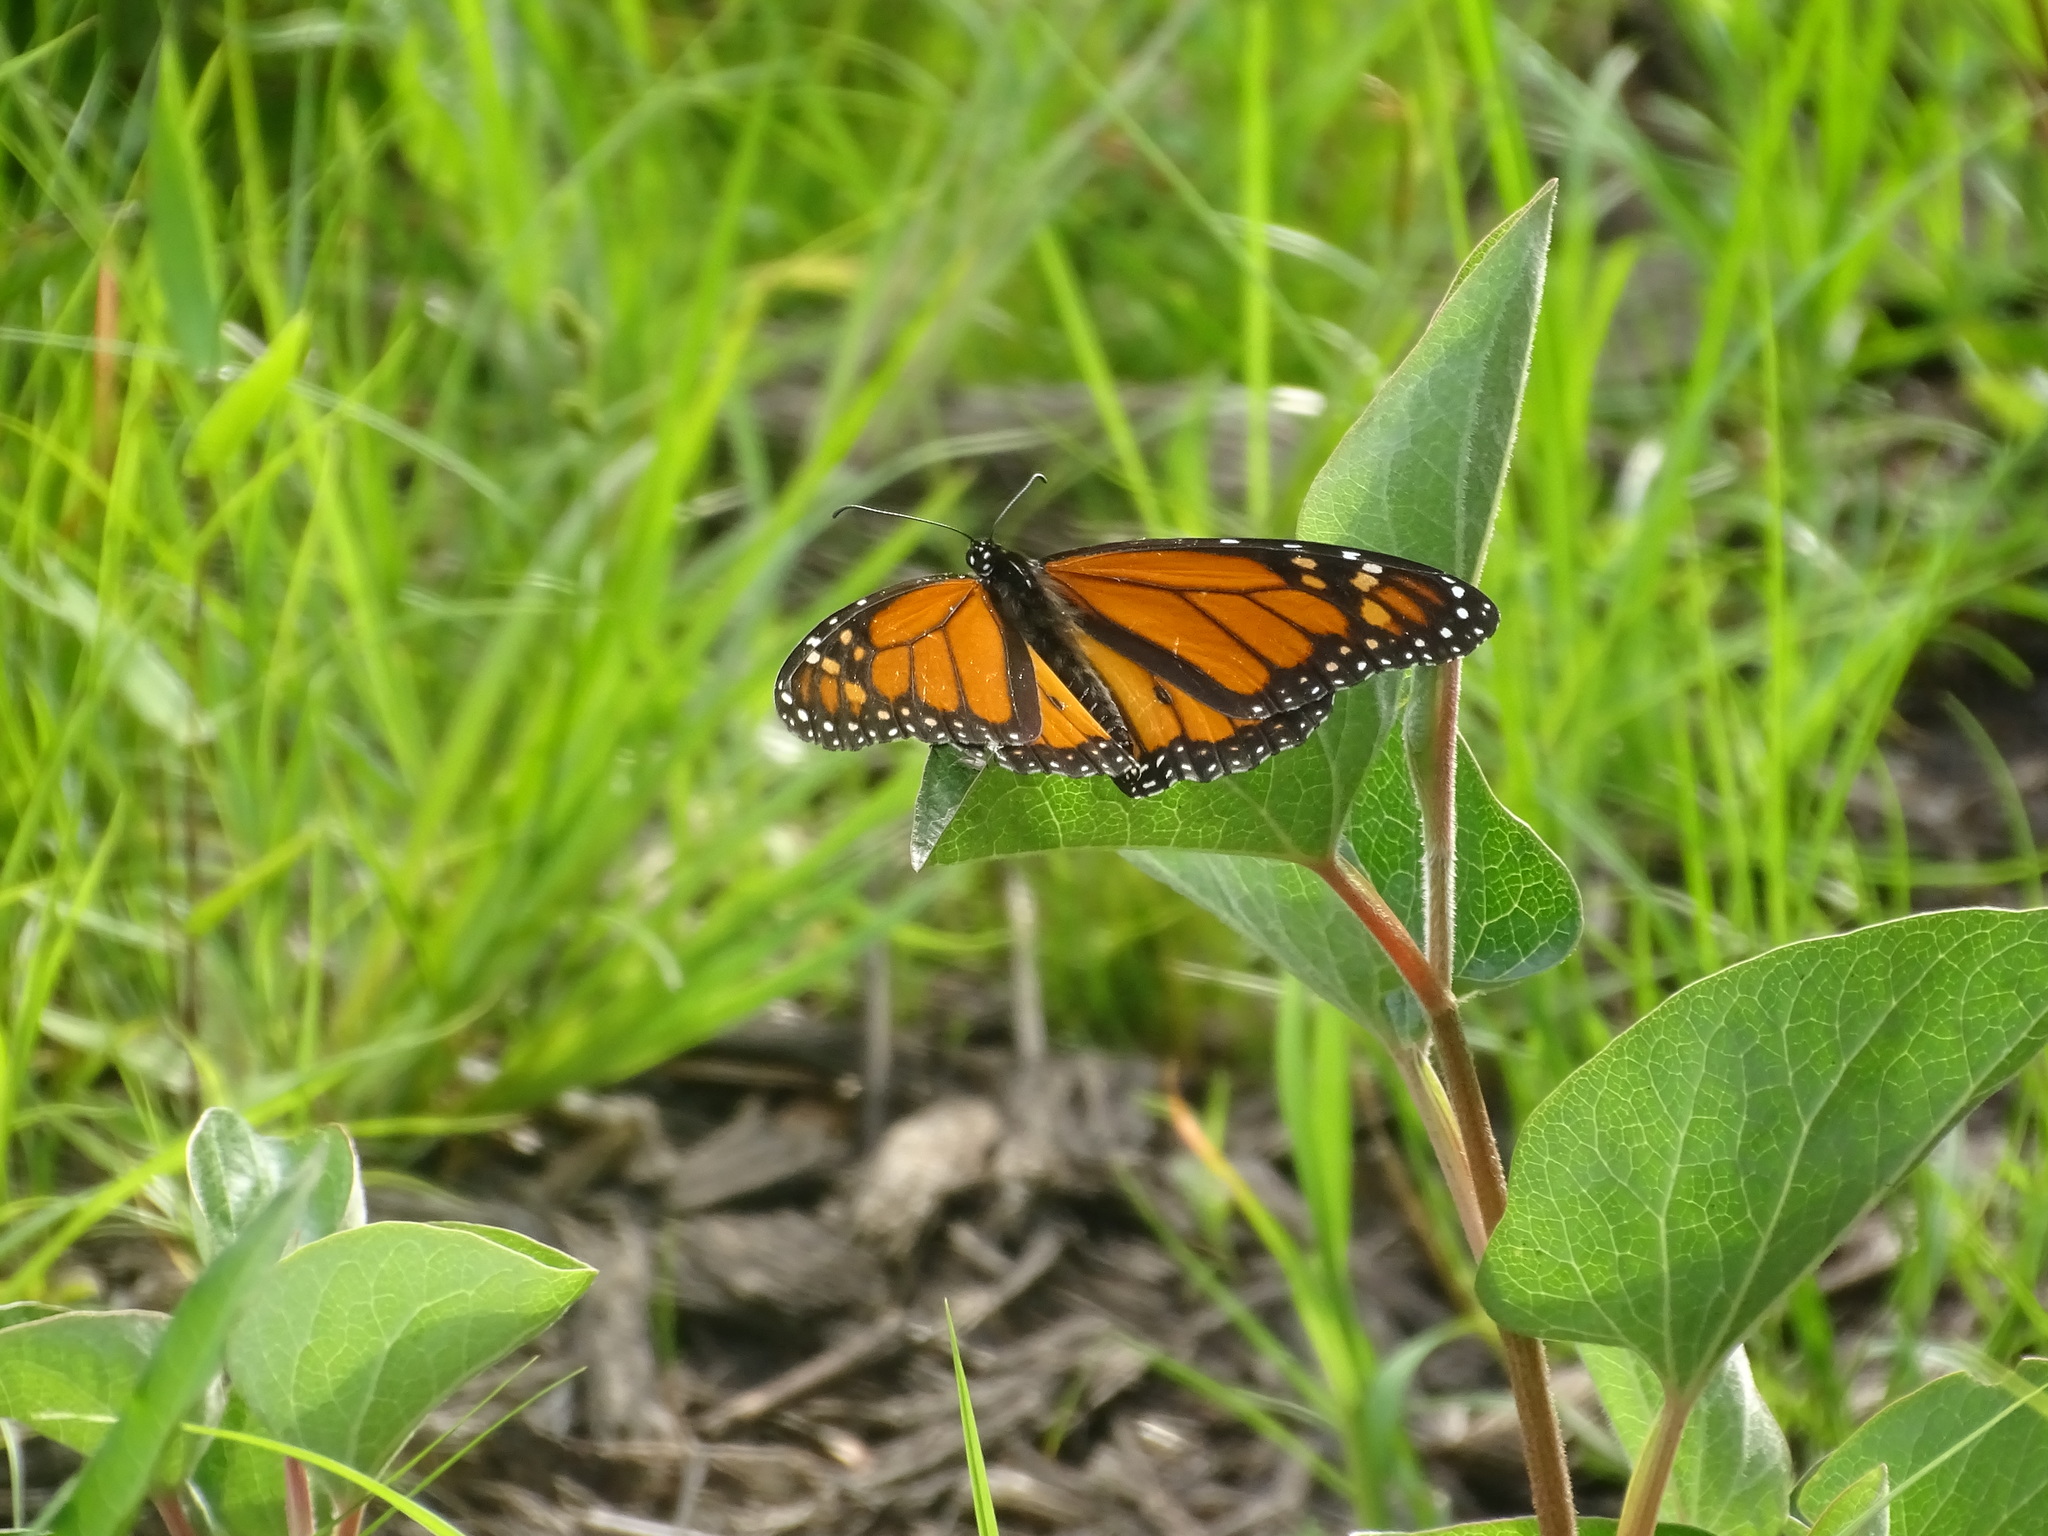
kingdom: Animalia
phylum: Arthropoda
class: Insecta
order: Lepidoptera
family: Nymphalidae
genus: Danaus
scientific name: Danaus plexippus
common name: Monarch
